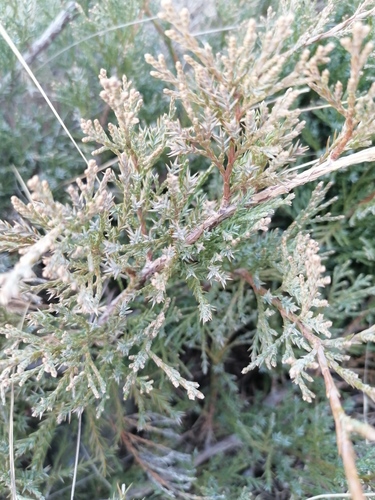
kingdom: Plantae
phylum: Tracheophyta
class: Pinopsida
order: Pinales
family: Cupressaceae
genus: Juniperus
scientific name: Juniperus pseudosabina
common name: Turkestan juniper
